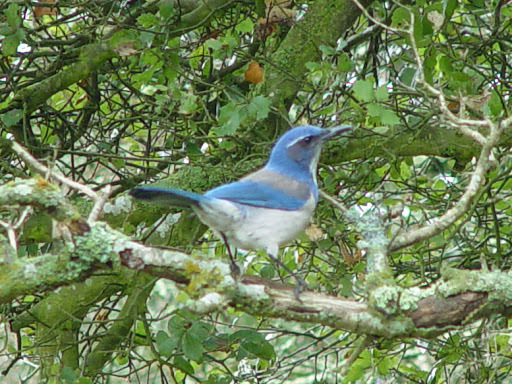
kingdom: Animalia
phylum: Chordata
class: Aves
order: Passeriformes
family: Corvidae
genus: Aphelocoma
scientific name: Aphelocoma californica
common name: California scrub-jay
